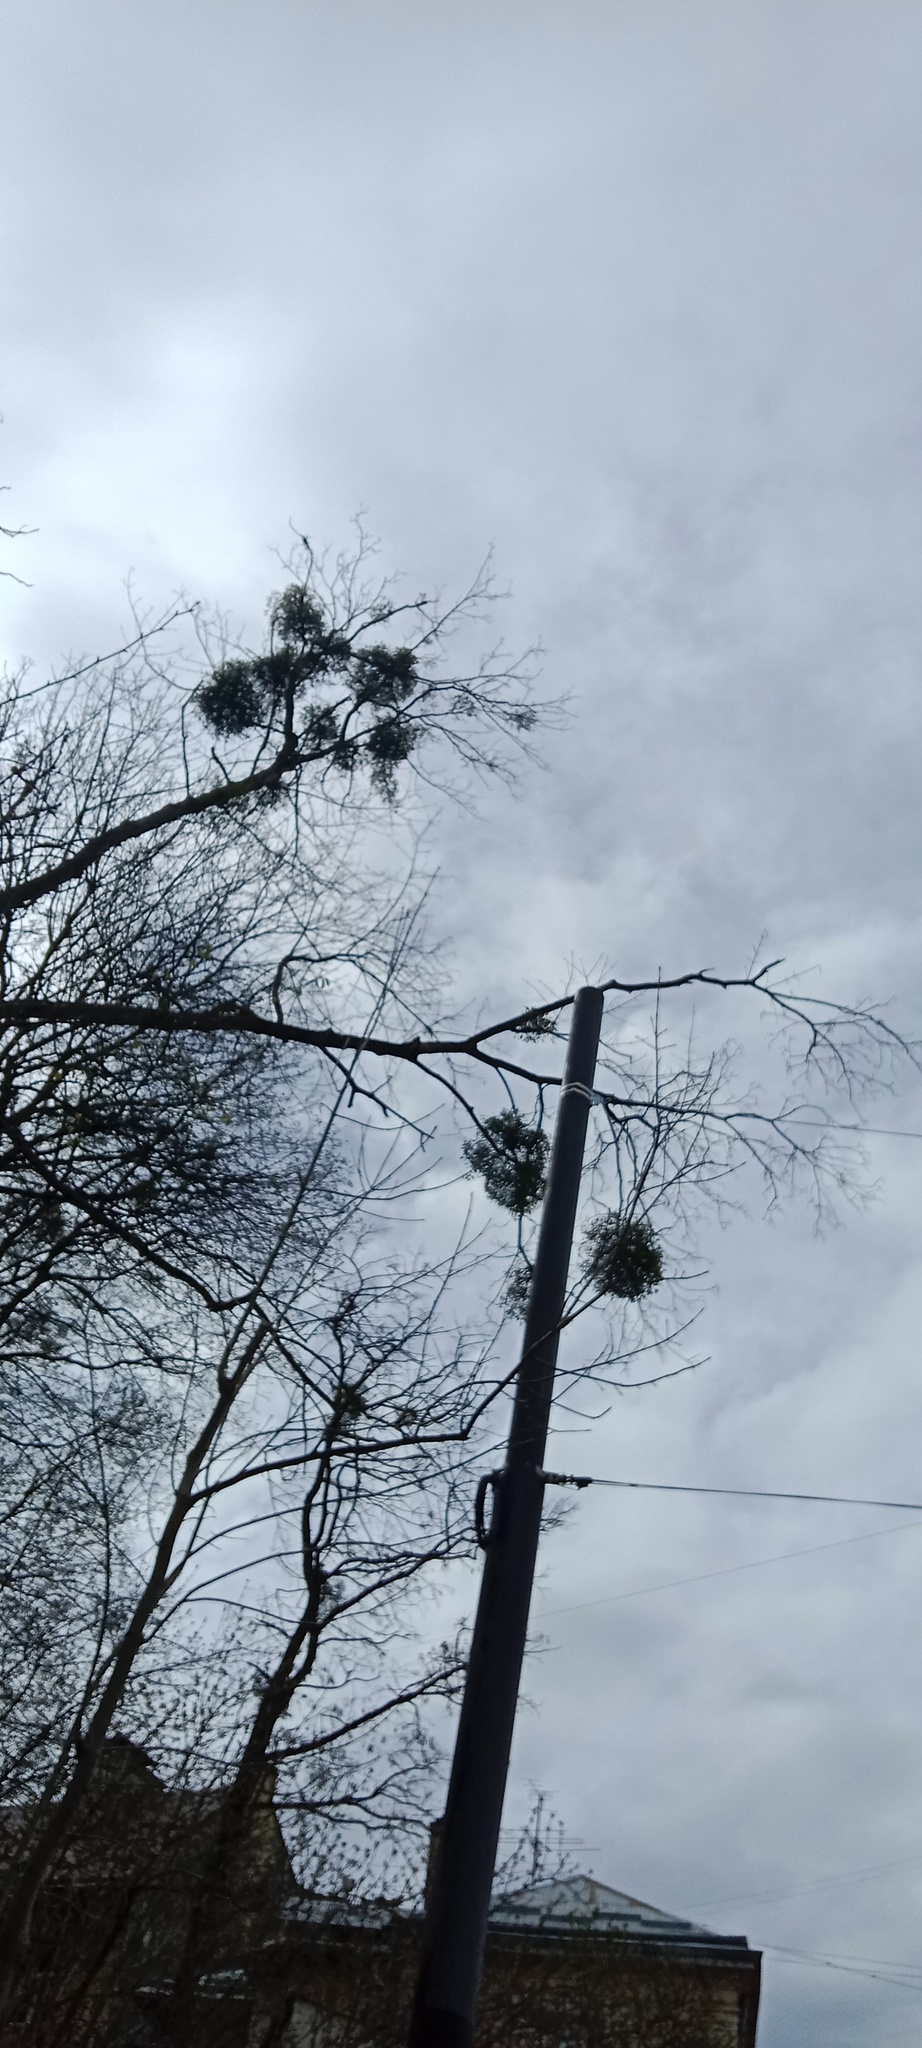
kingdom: Plantae
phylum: Tracheophyta
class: Magnoliopsida
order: Santalales
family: Viscaceae
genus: Viscum
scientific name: Viscum album
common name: Mistletoe
